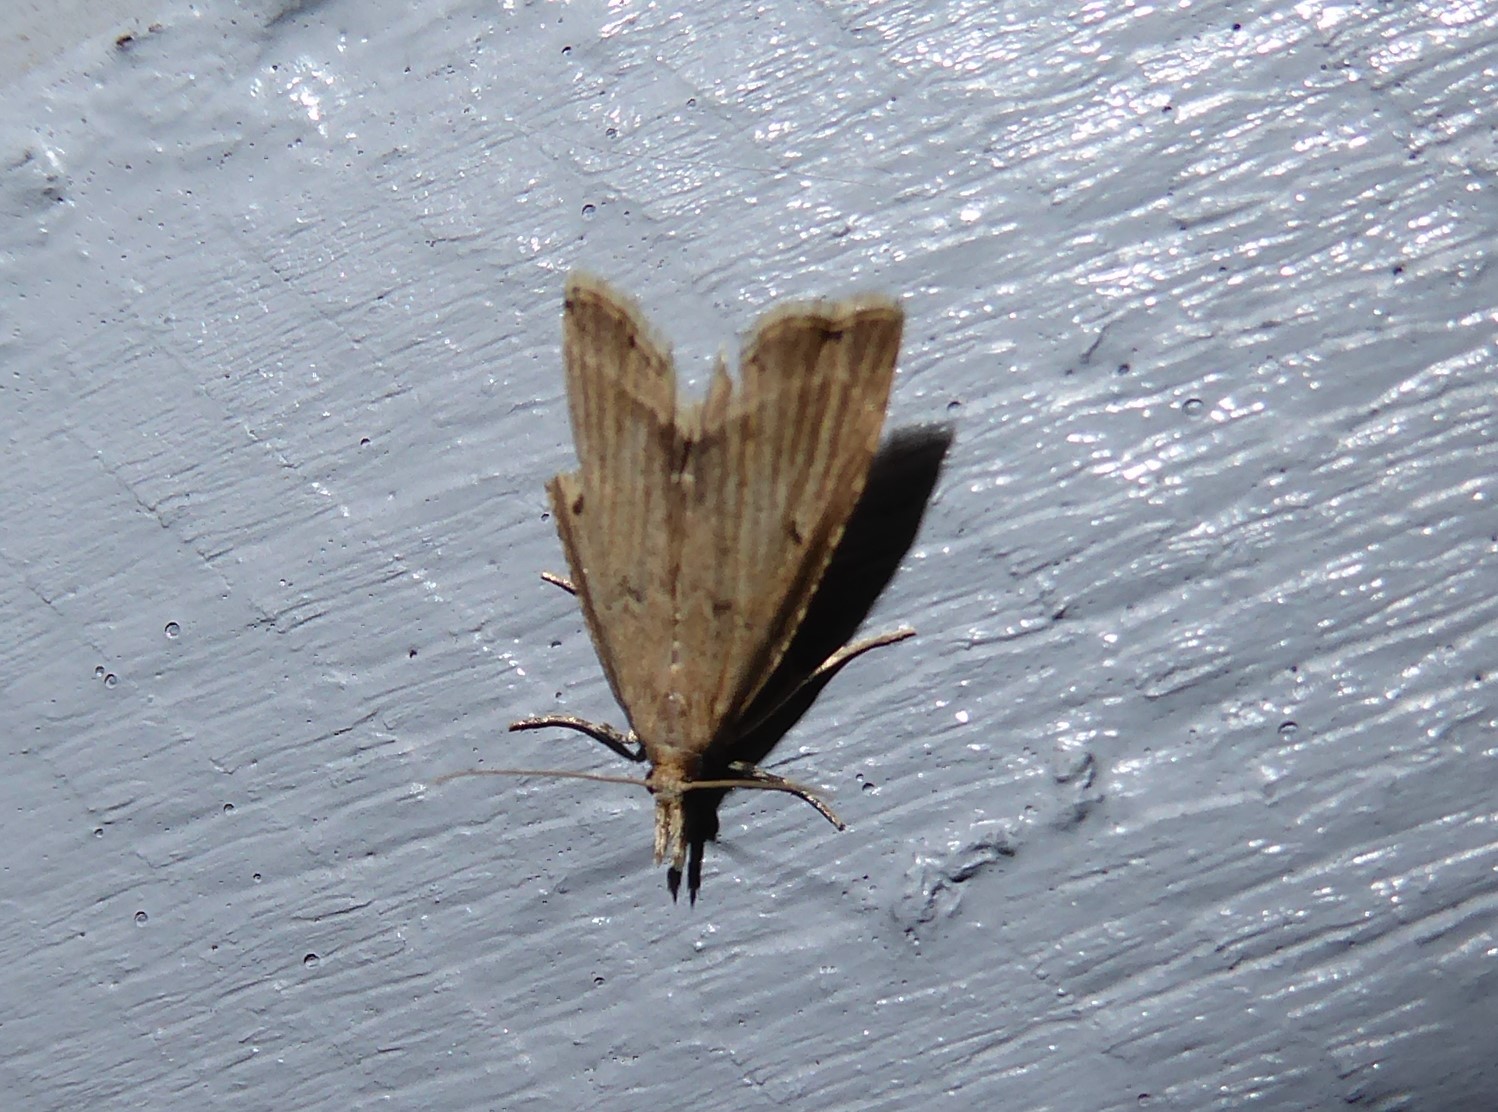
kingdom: Animalia
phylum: Arthropoda
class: Insecta
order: Lepidoptera
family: Crambidae
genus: Diplopseustis
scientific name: Diplopseustis perieresalis
